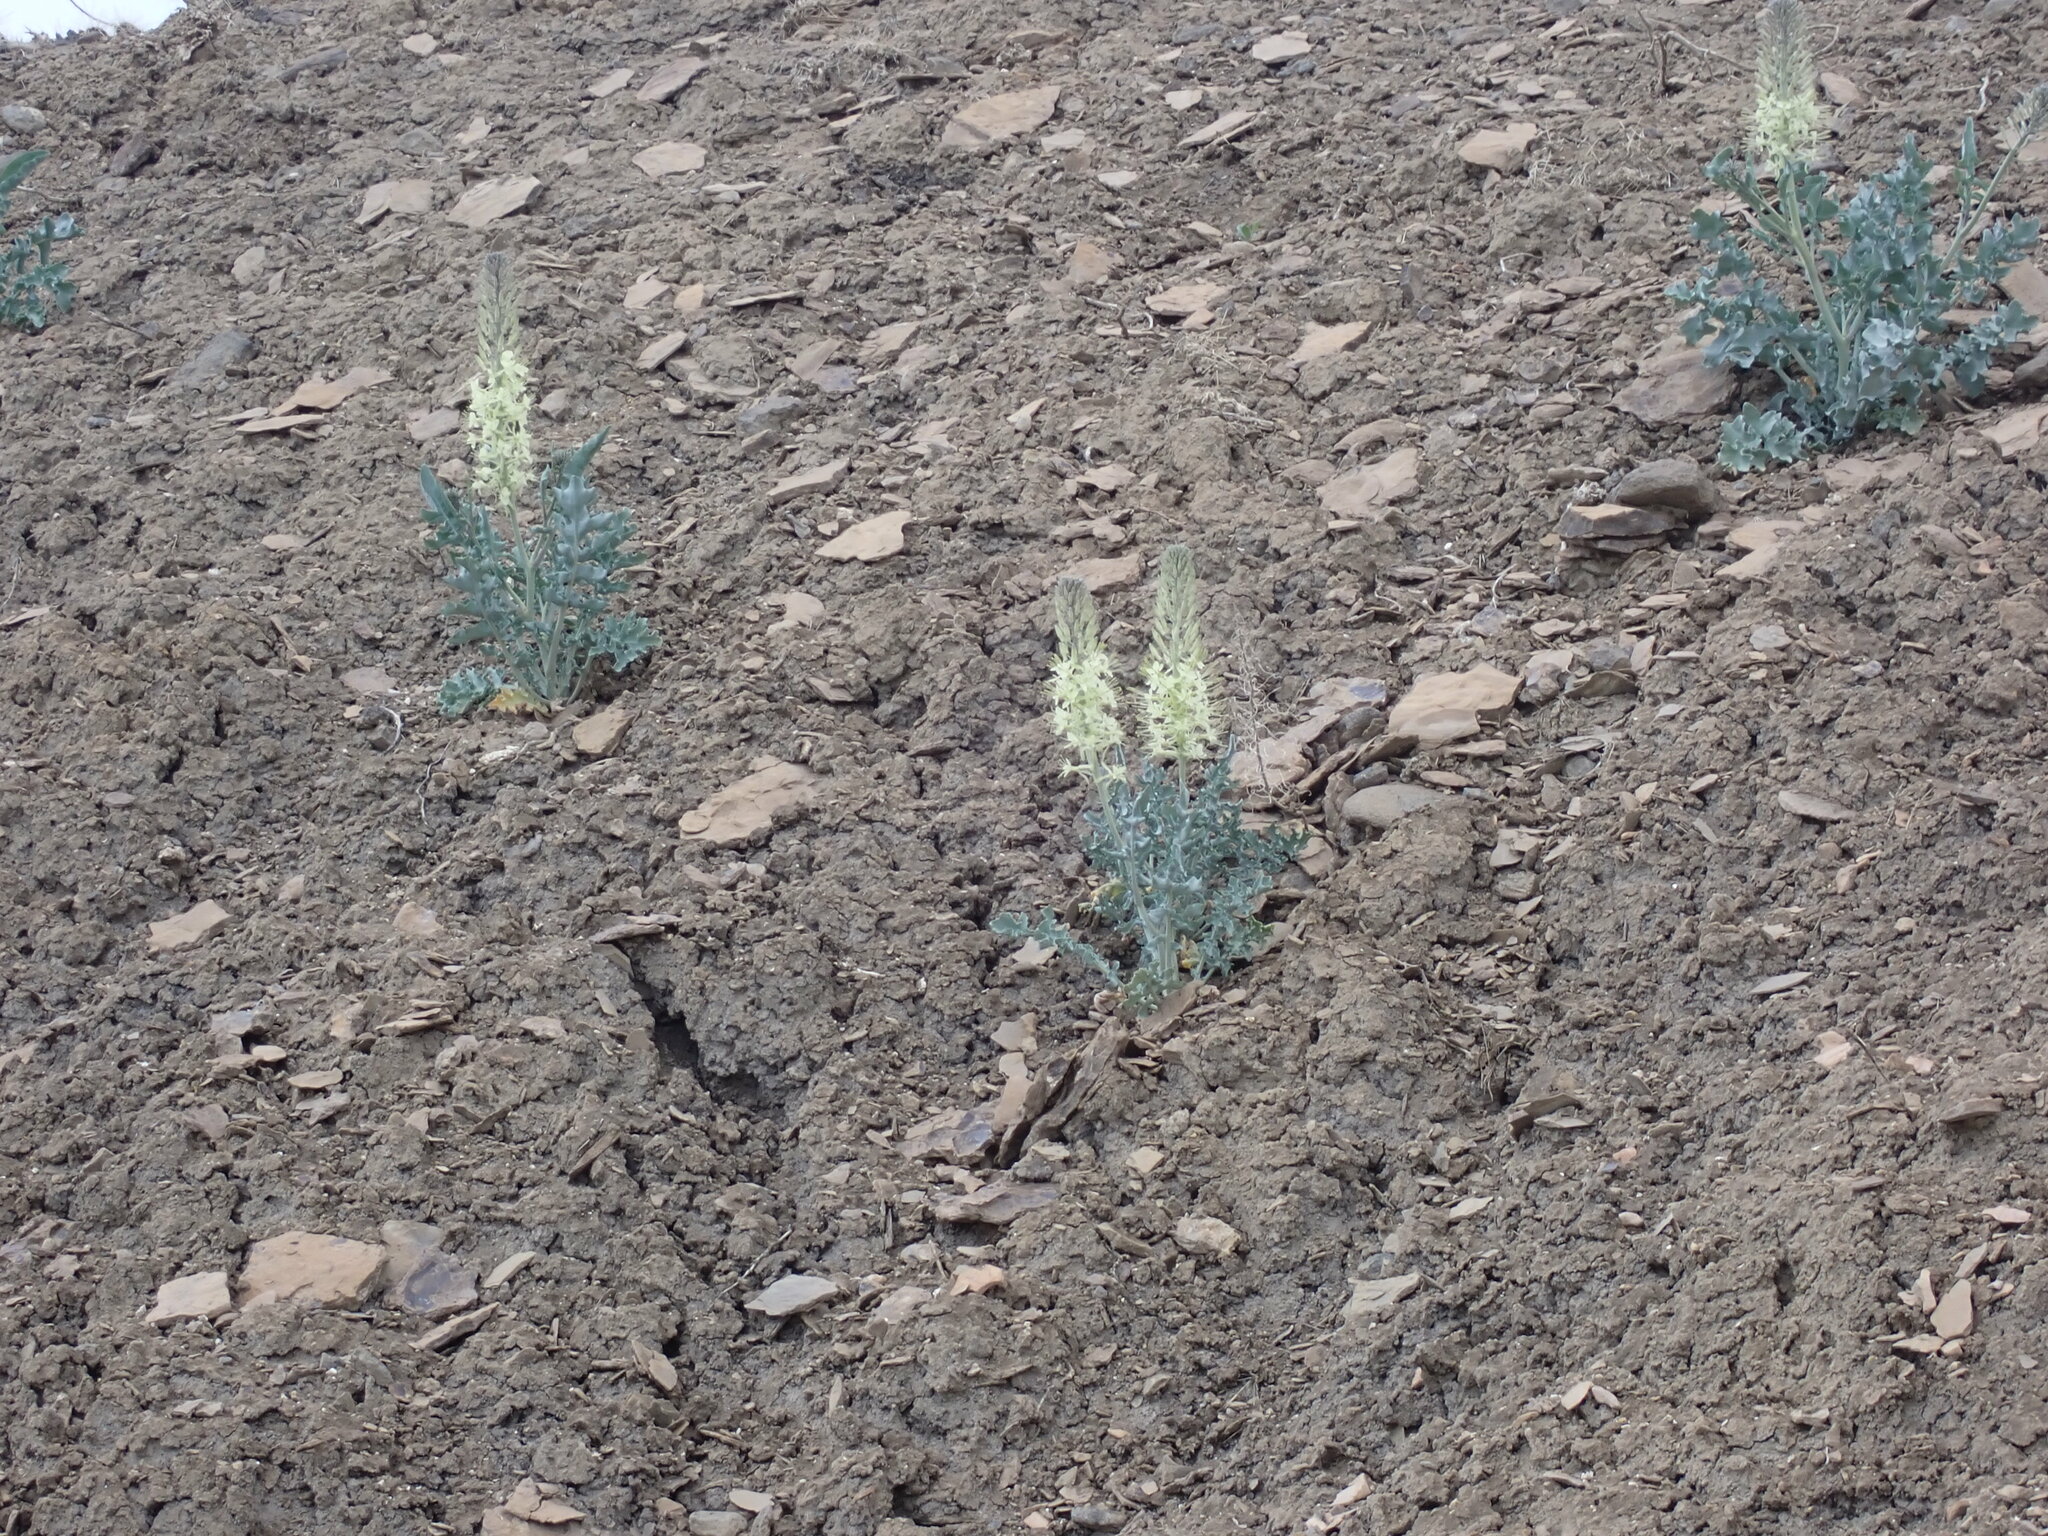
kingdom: Plantae
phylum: Tracheophyta
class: Magnoliopsida
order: Brassicales
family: Brassicaceae
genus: Stanleya
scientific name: Stanleya albescens
